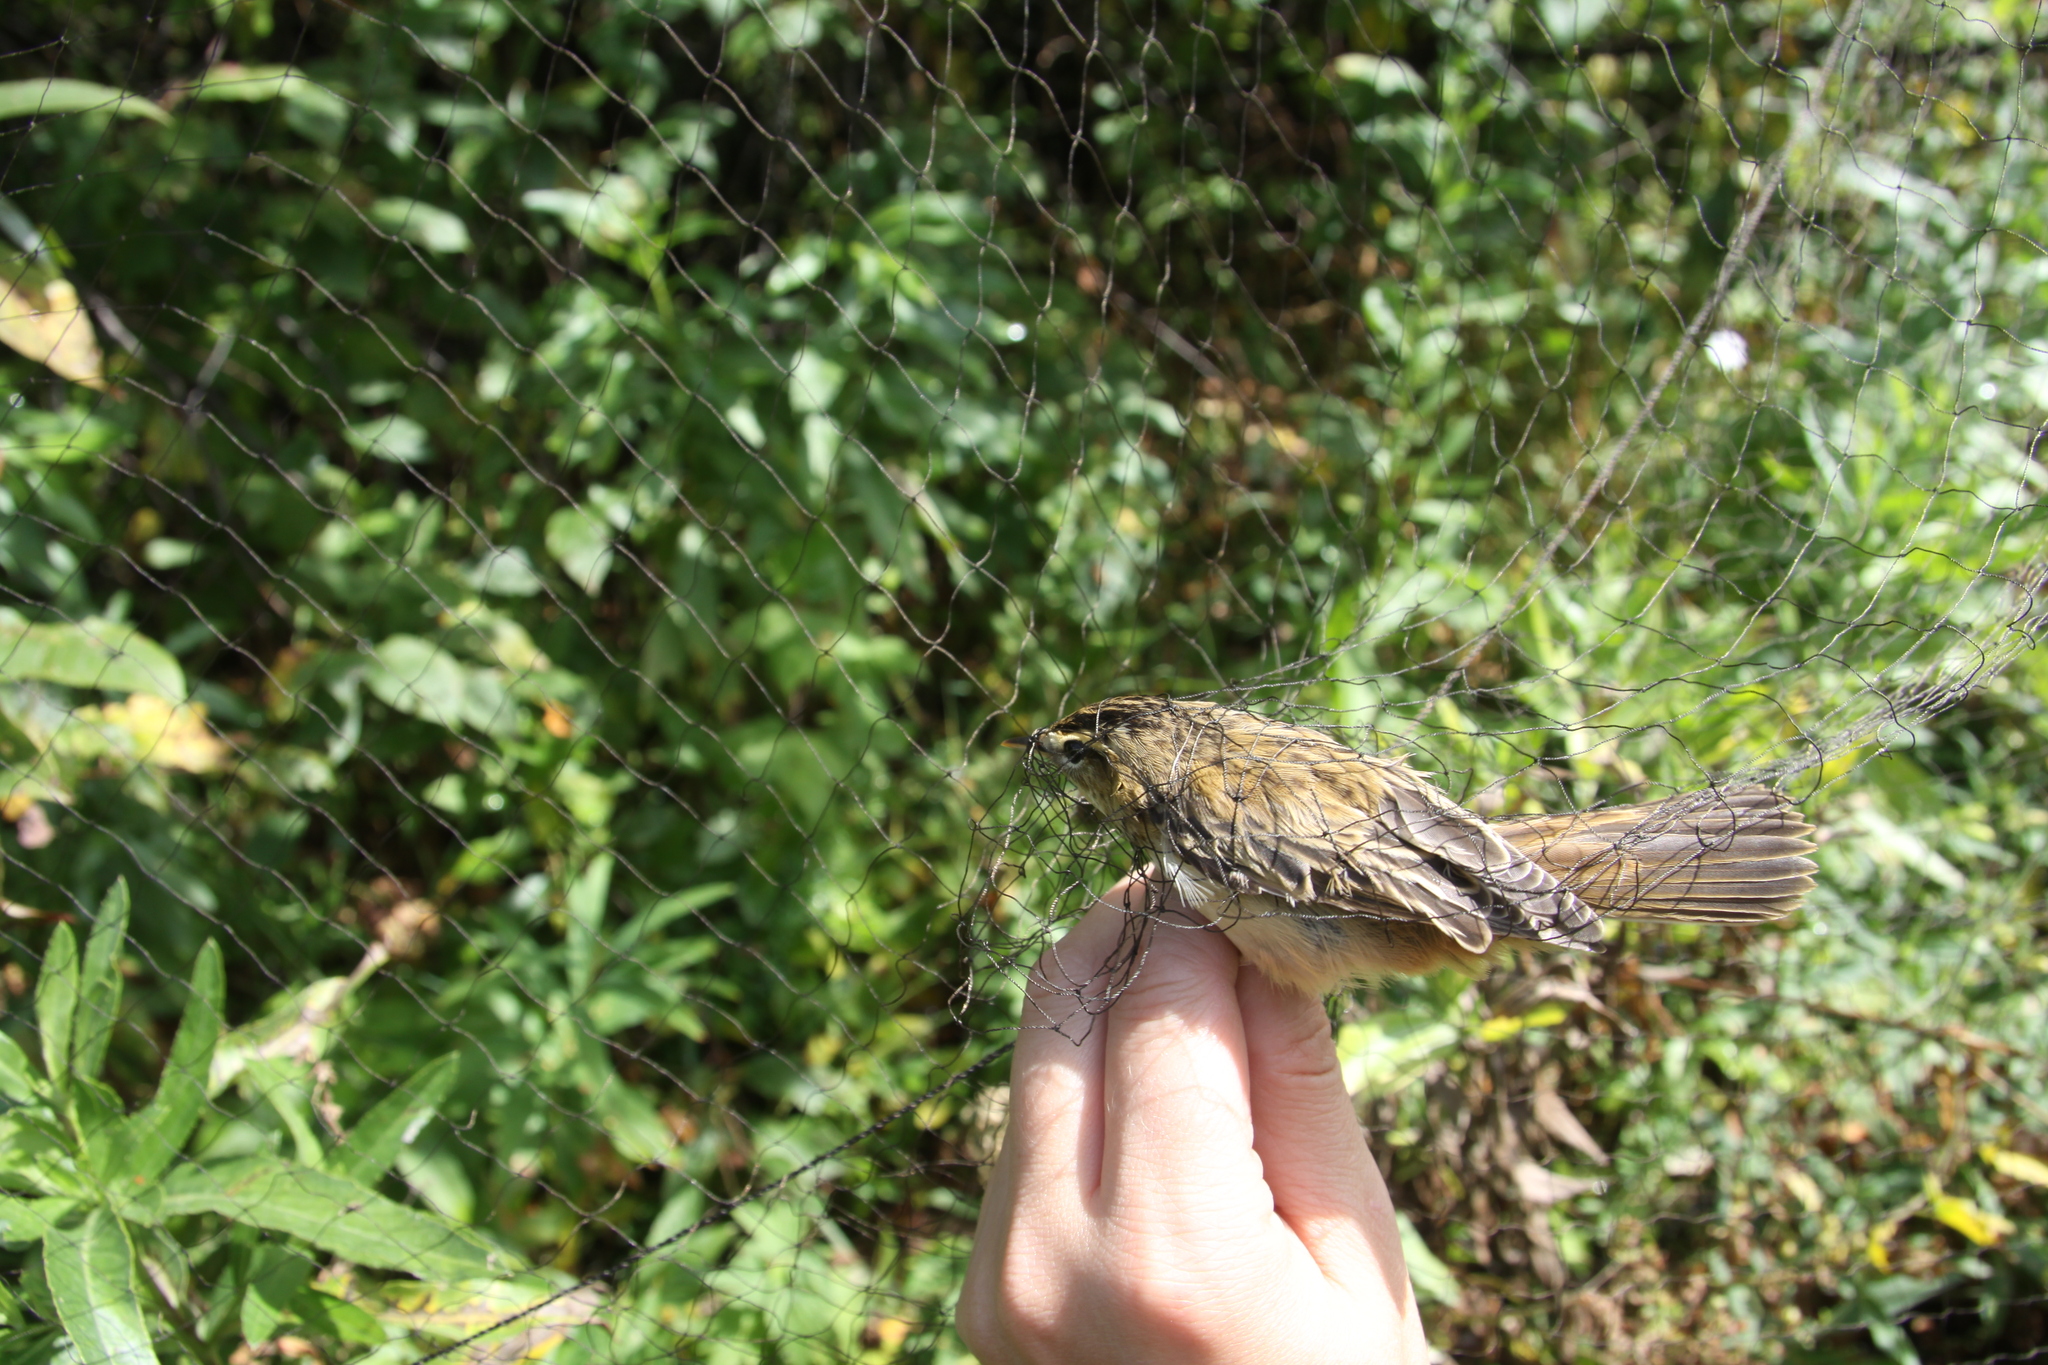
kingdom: Animalia
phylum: Chordata
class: Aves
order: Passeriformes
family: Acrocephalidae
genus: Acrocephalus
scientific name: Acrocephalus schoenobaenus
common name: Sedge warbler
